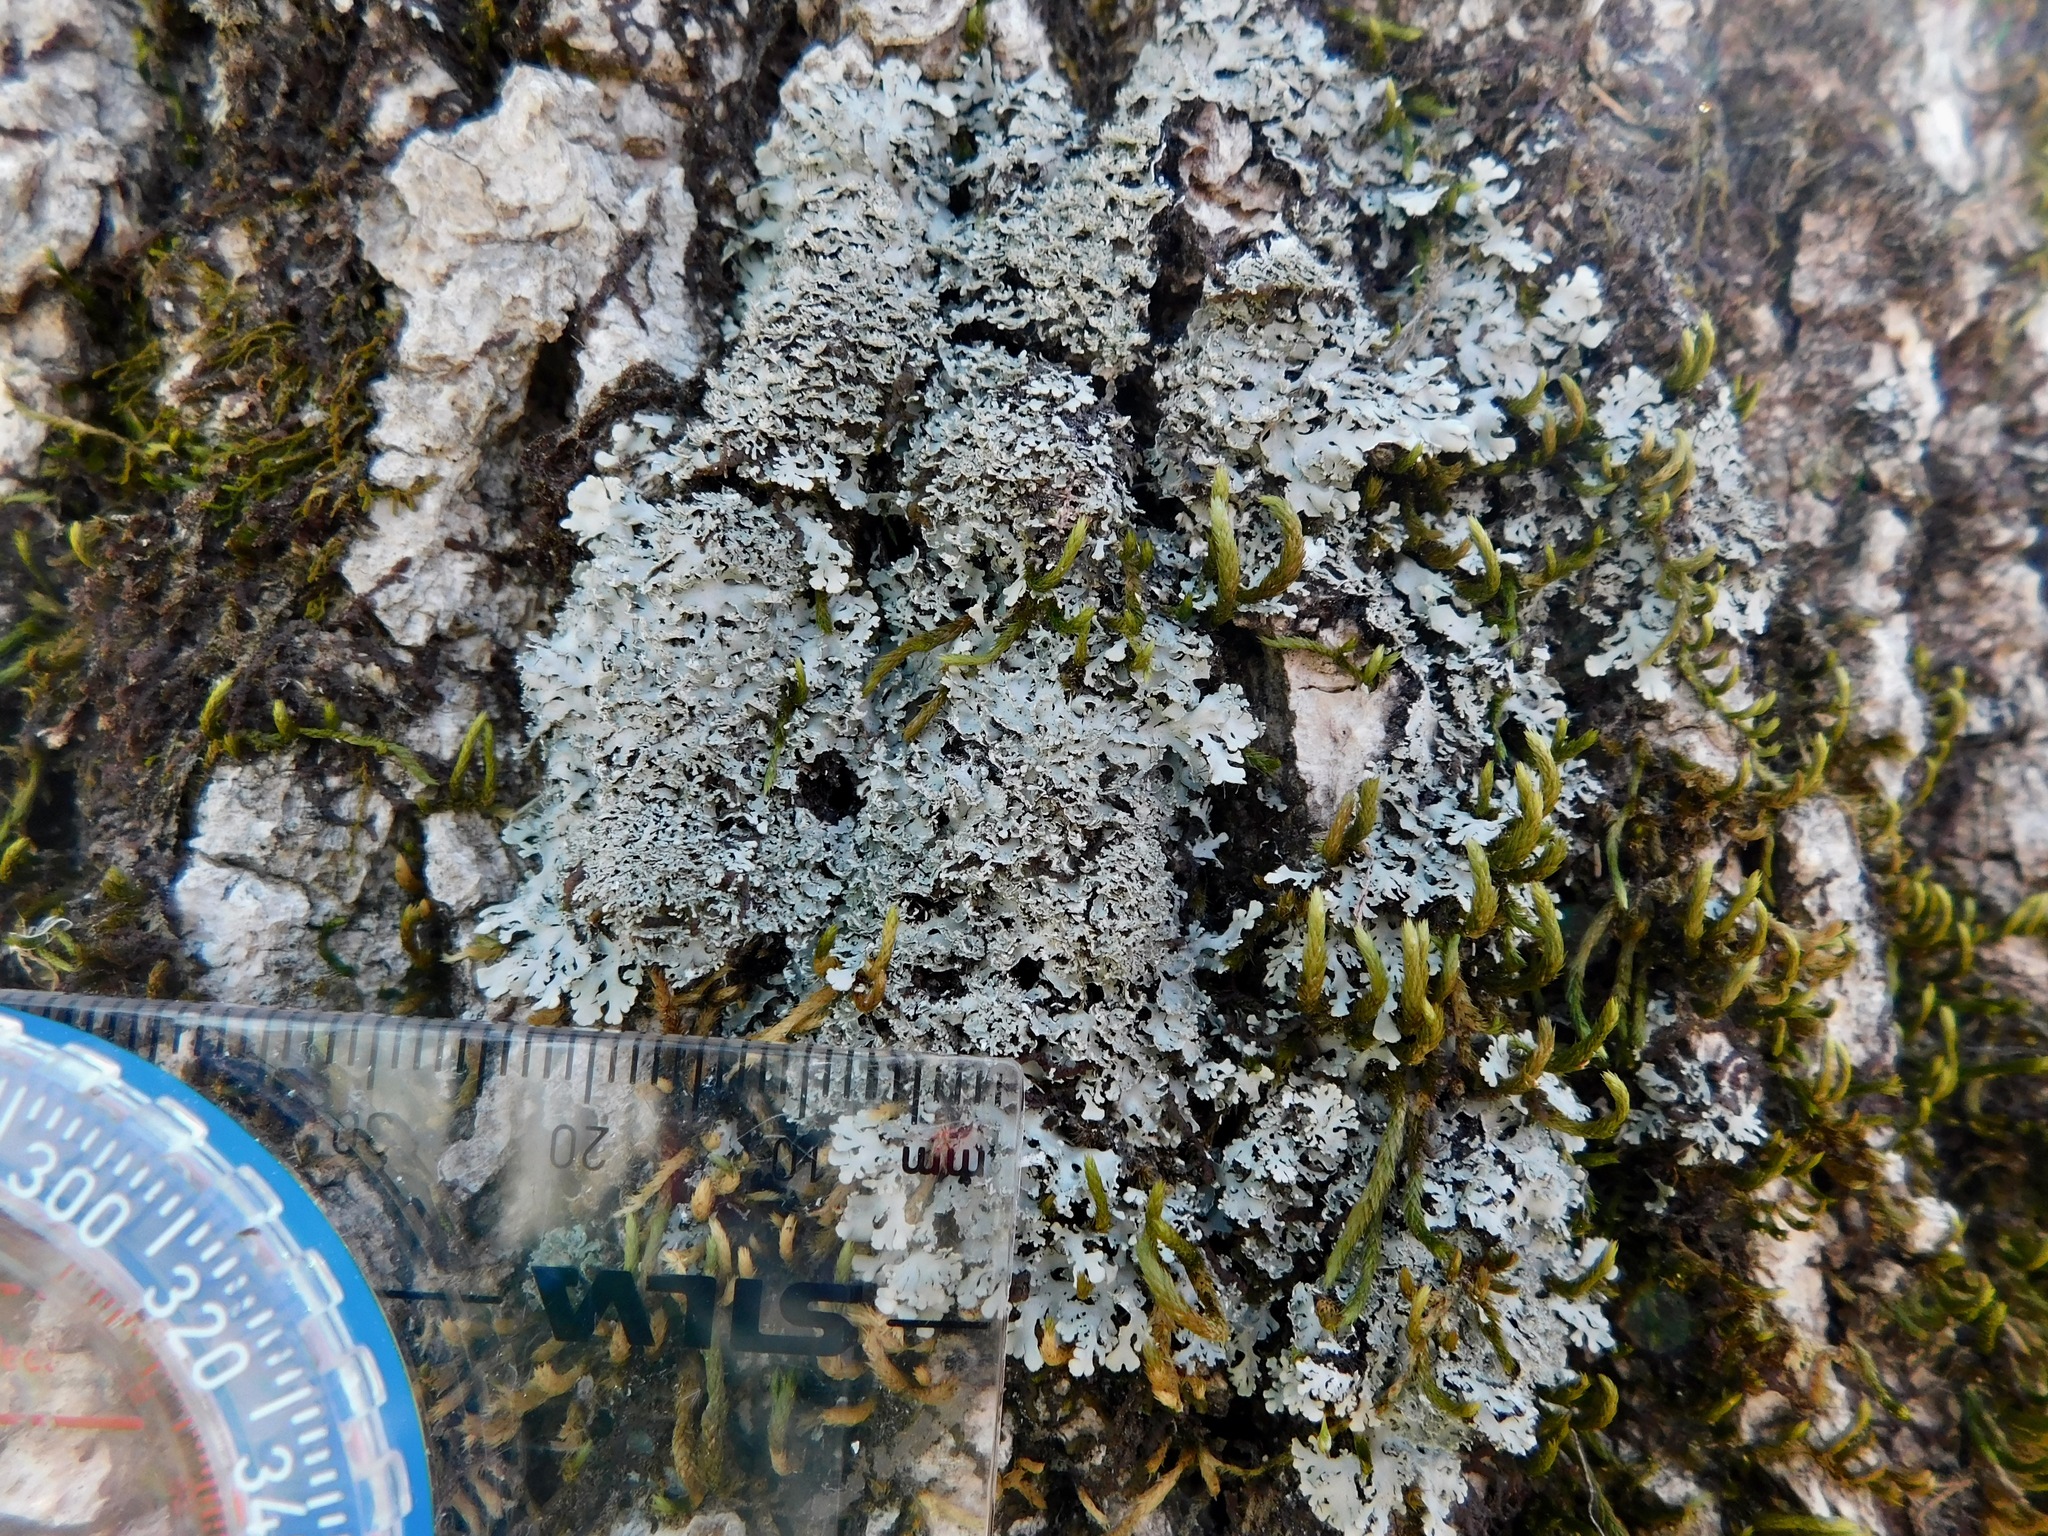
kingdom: Fungi
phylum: Ascomycota
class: Lecanoromycetes
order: Caliciales
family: Physciaceae
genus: Polyblastidium
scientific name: Polyblastidium squamulosum
